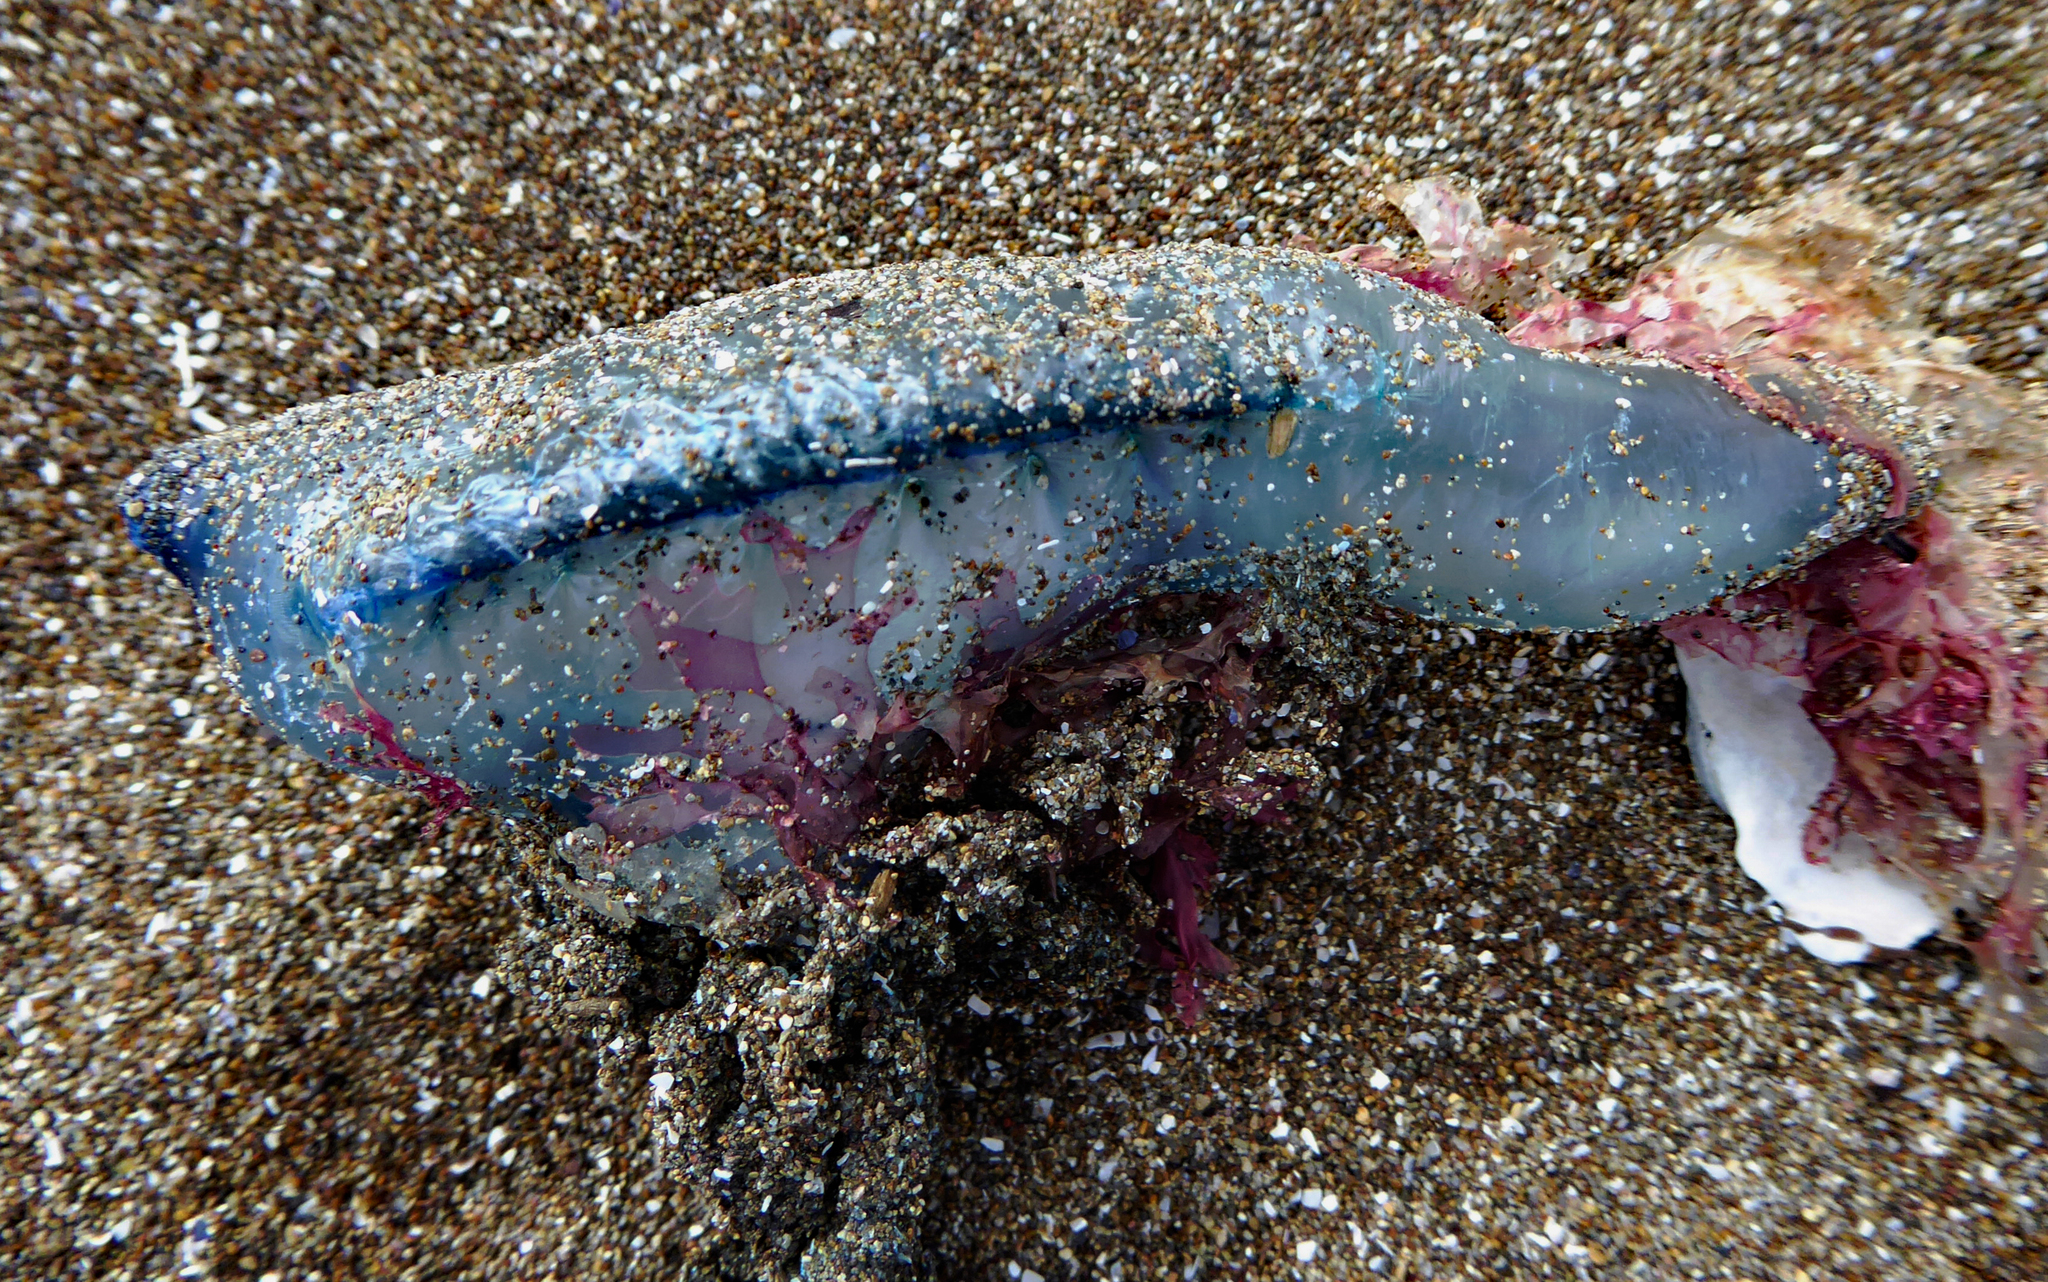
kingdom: Animalia
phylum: Cnidaria
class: Hydrozoa
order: Siphonophorae
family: Physaliidae
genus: Physalia
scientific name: Physalia physalis
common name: Portuguese man-of-war
